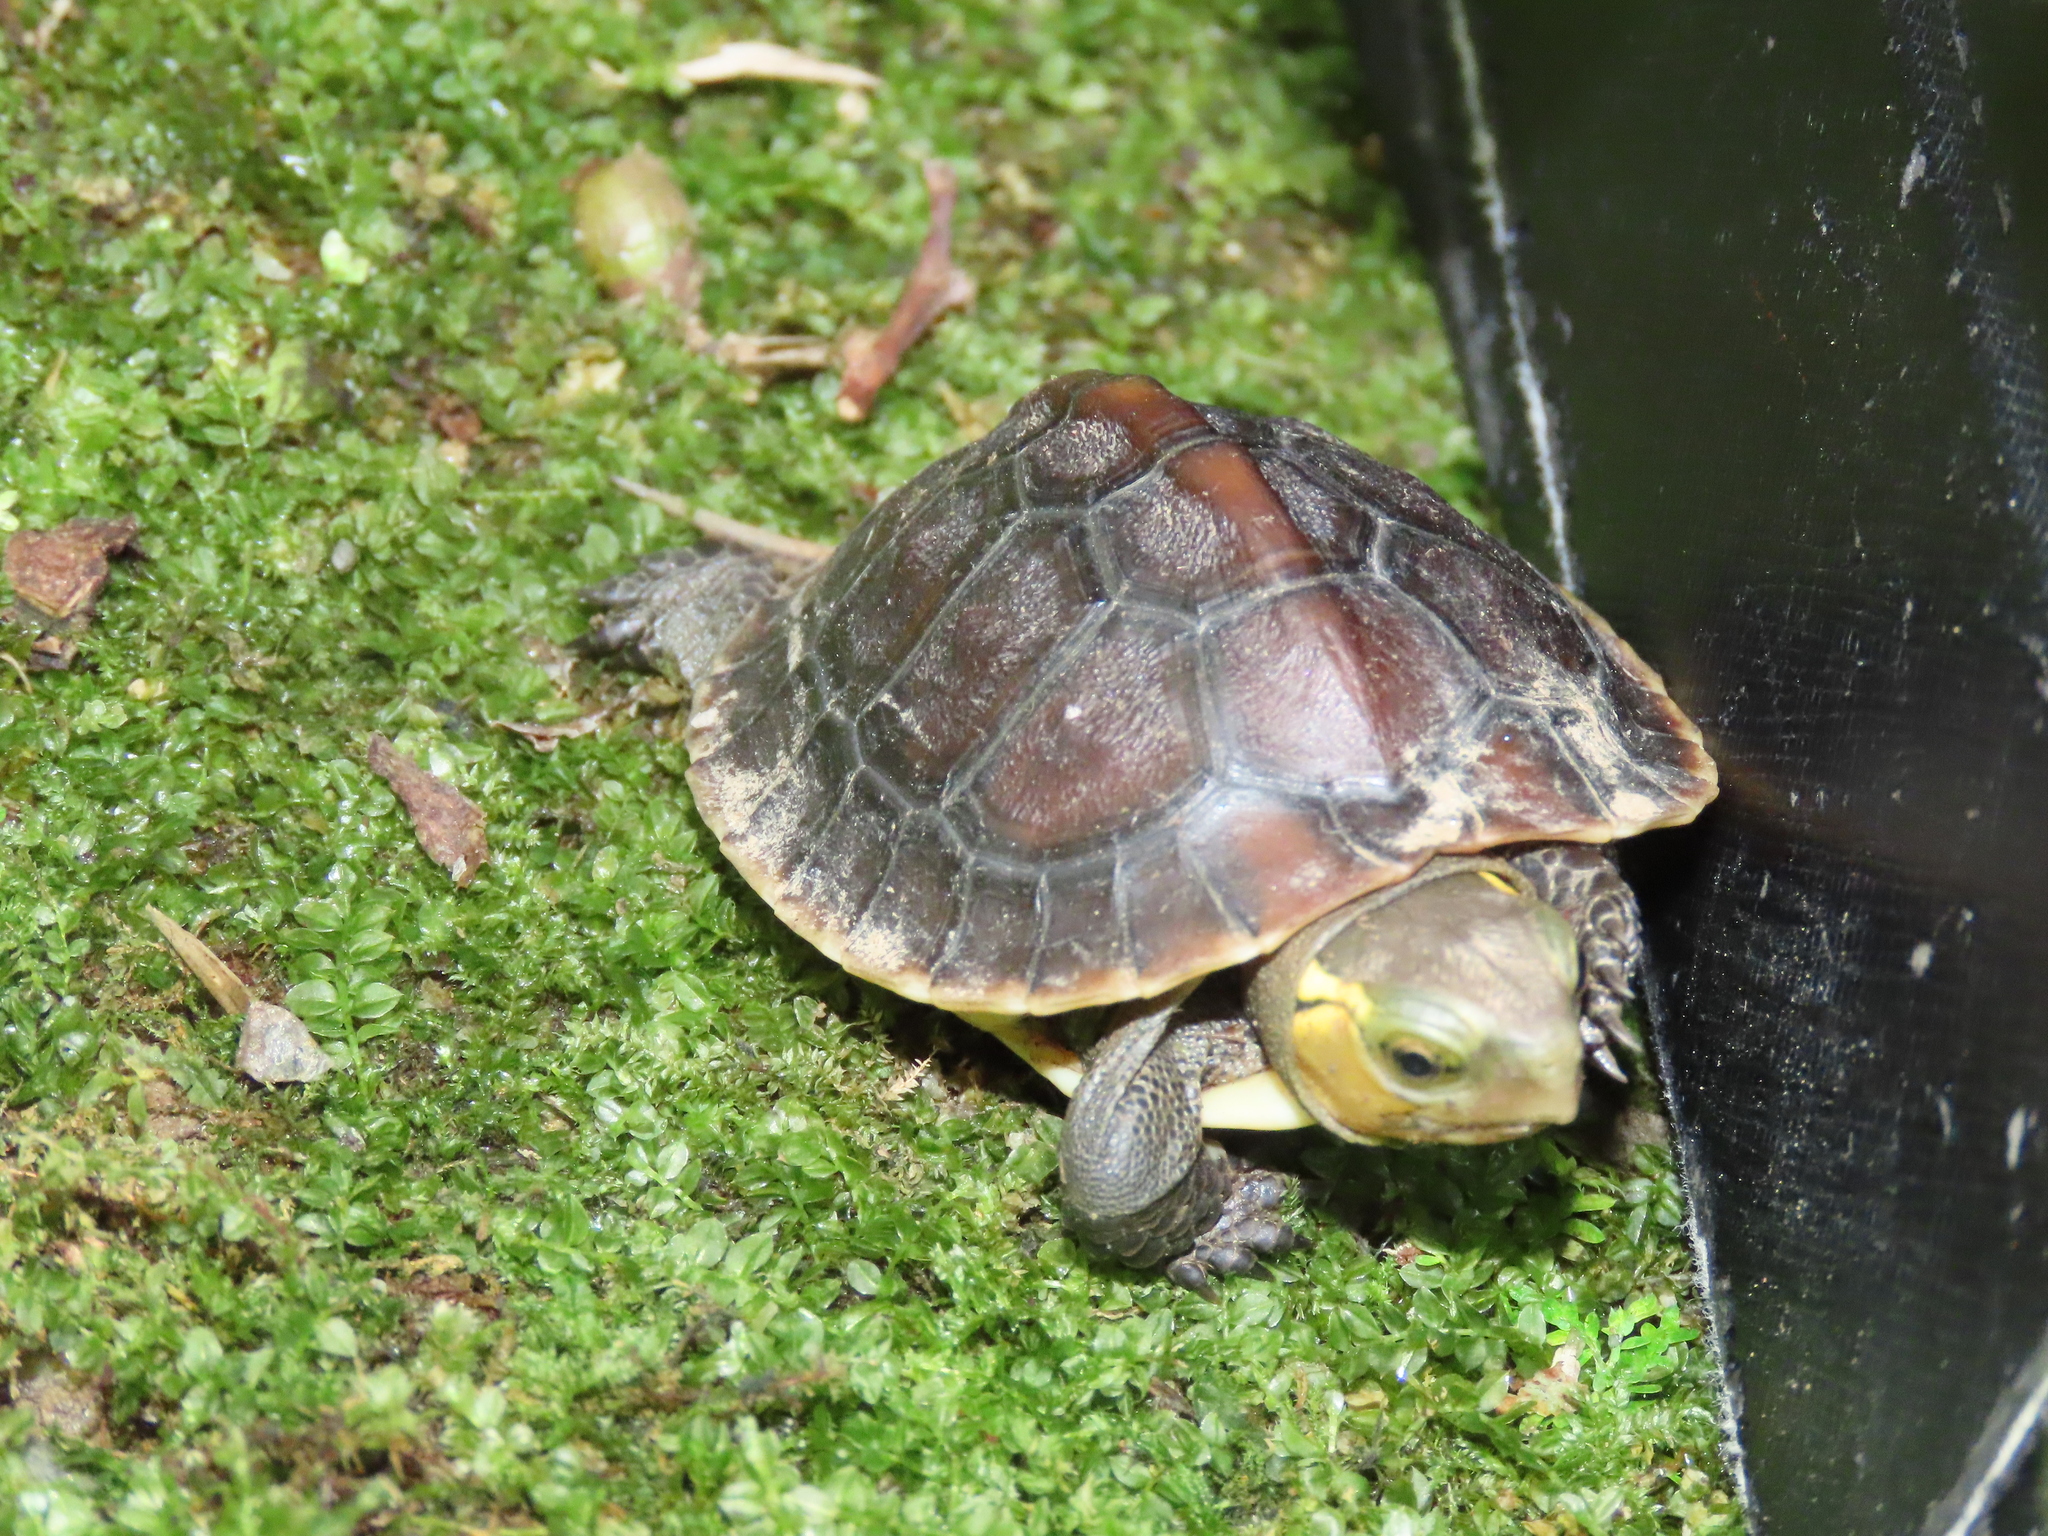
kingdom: Animalia
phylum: Chordata
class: Testudines
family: Geoemydidae
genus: Cuora
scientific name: Cuora flavomarginata
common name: Yellow-margined box turtle
